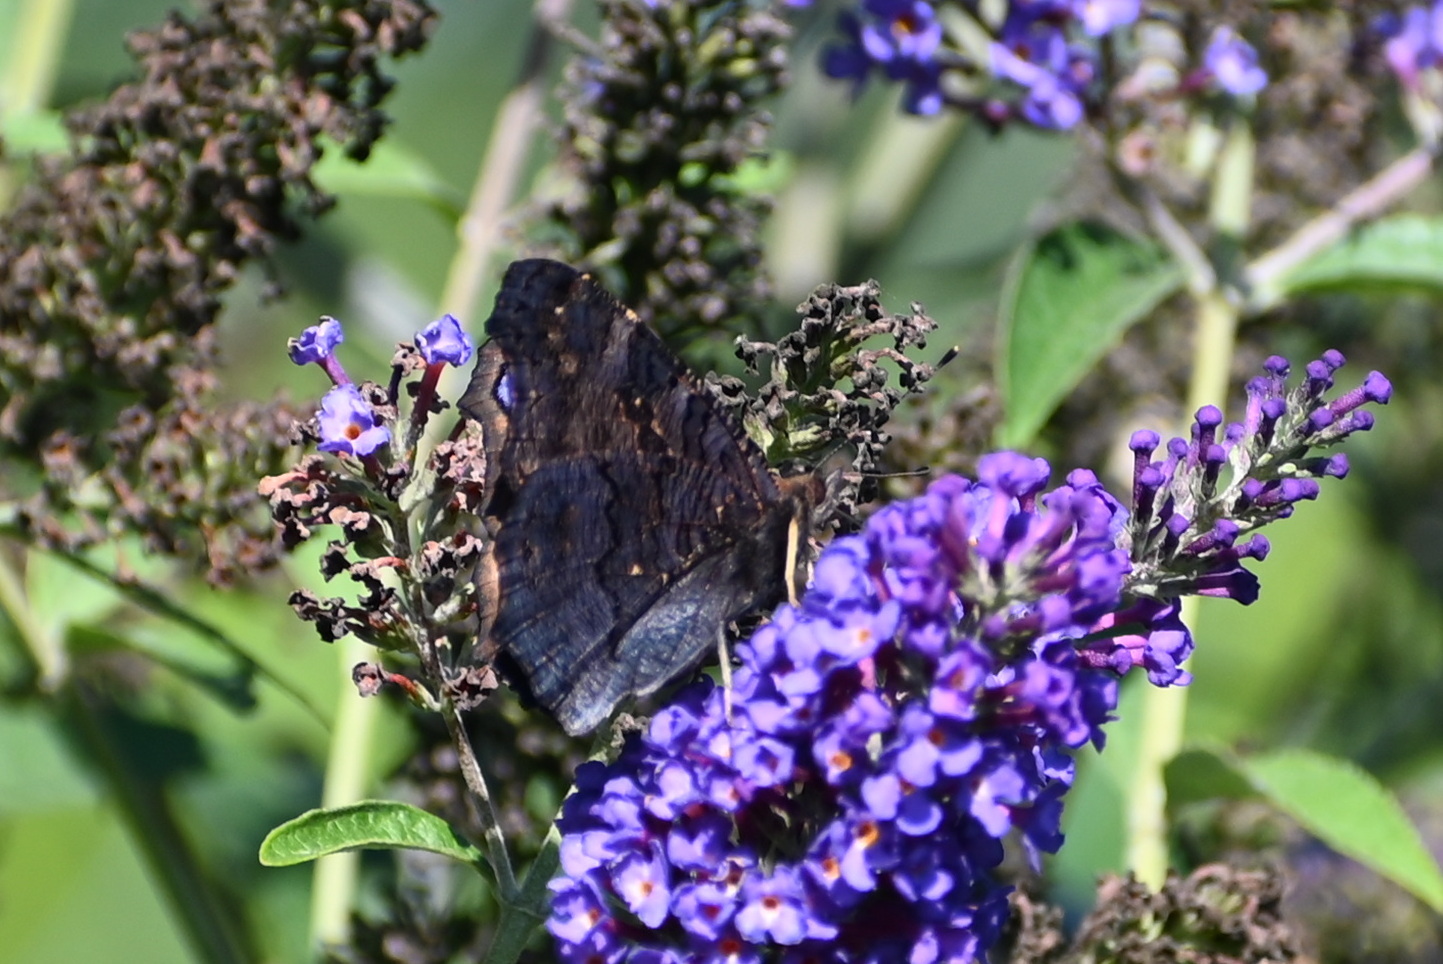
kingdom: Animalia
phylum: Arthropoda
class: Insecta
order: Lepidoptera
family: Nymphalidae
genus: Aglais
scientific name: Aglais io
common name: Peacock
